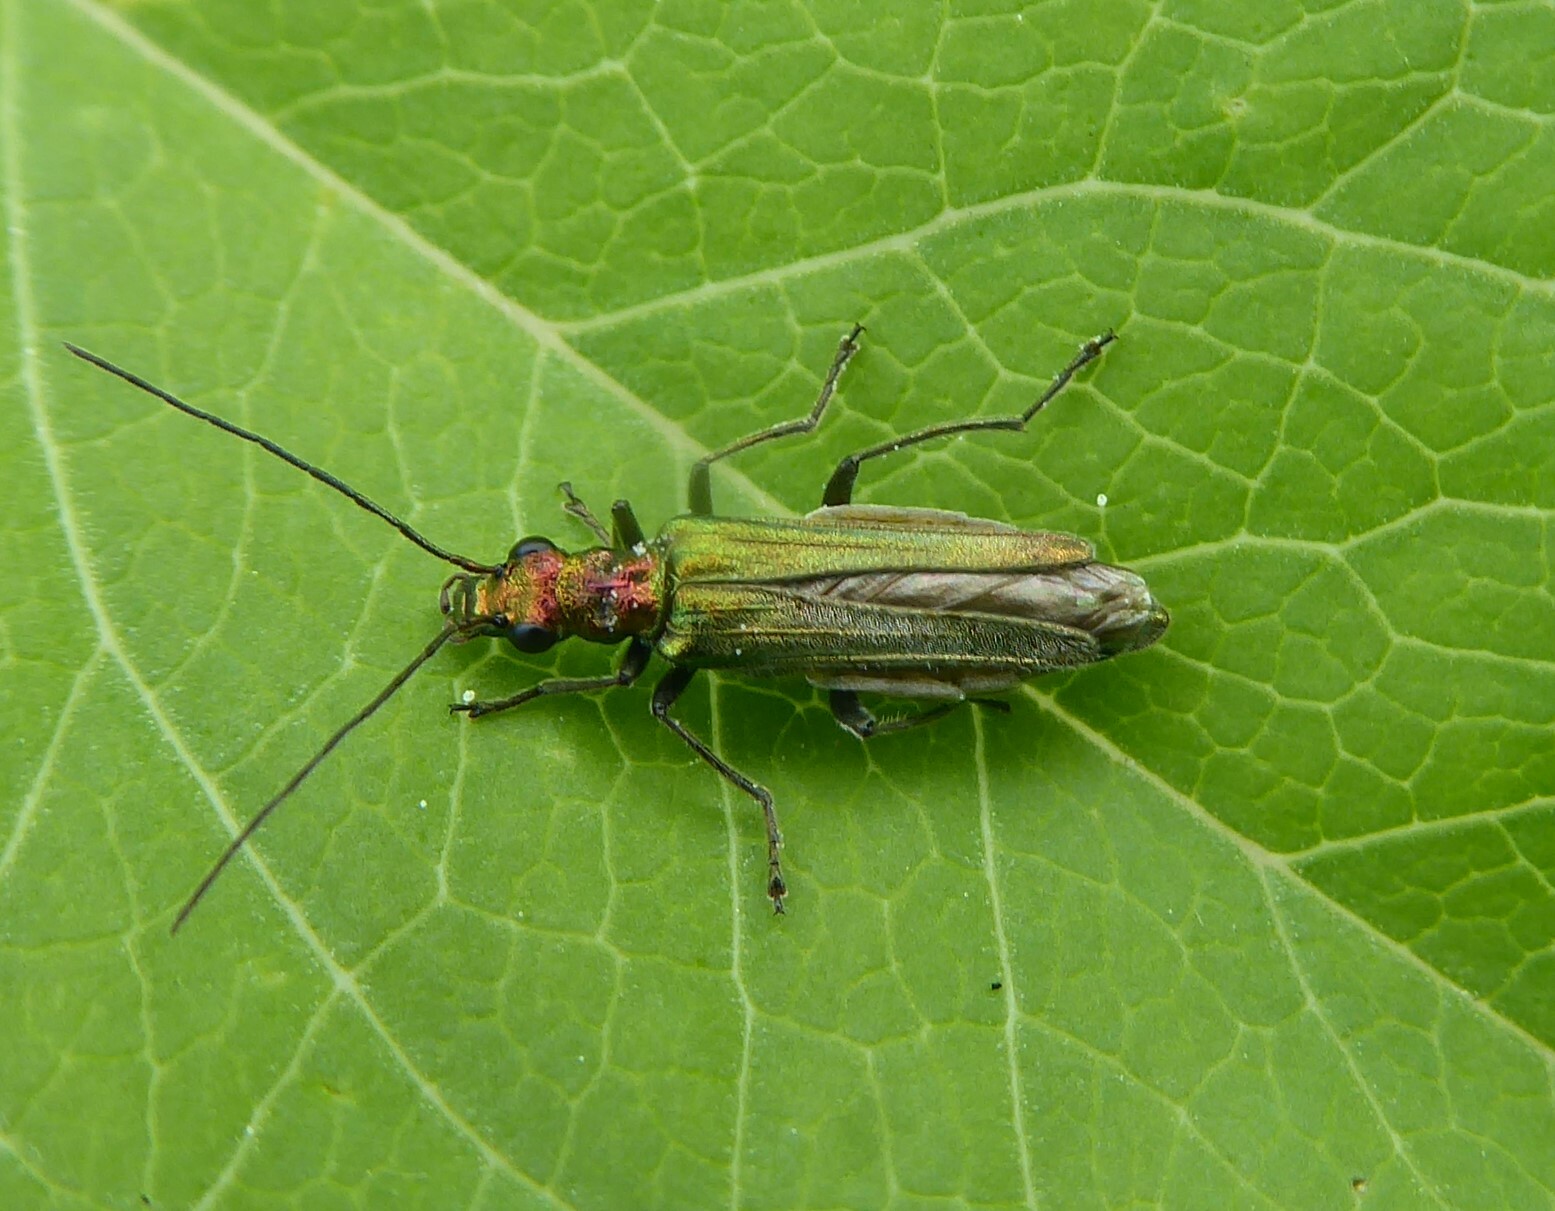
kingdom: Animalia
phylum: Arthropoda
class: Insecta
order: Coleoptera
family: Oedemeridae
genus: Oedemera
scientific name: Oedemera nobilis
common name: Swollen-thighed beetle
